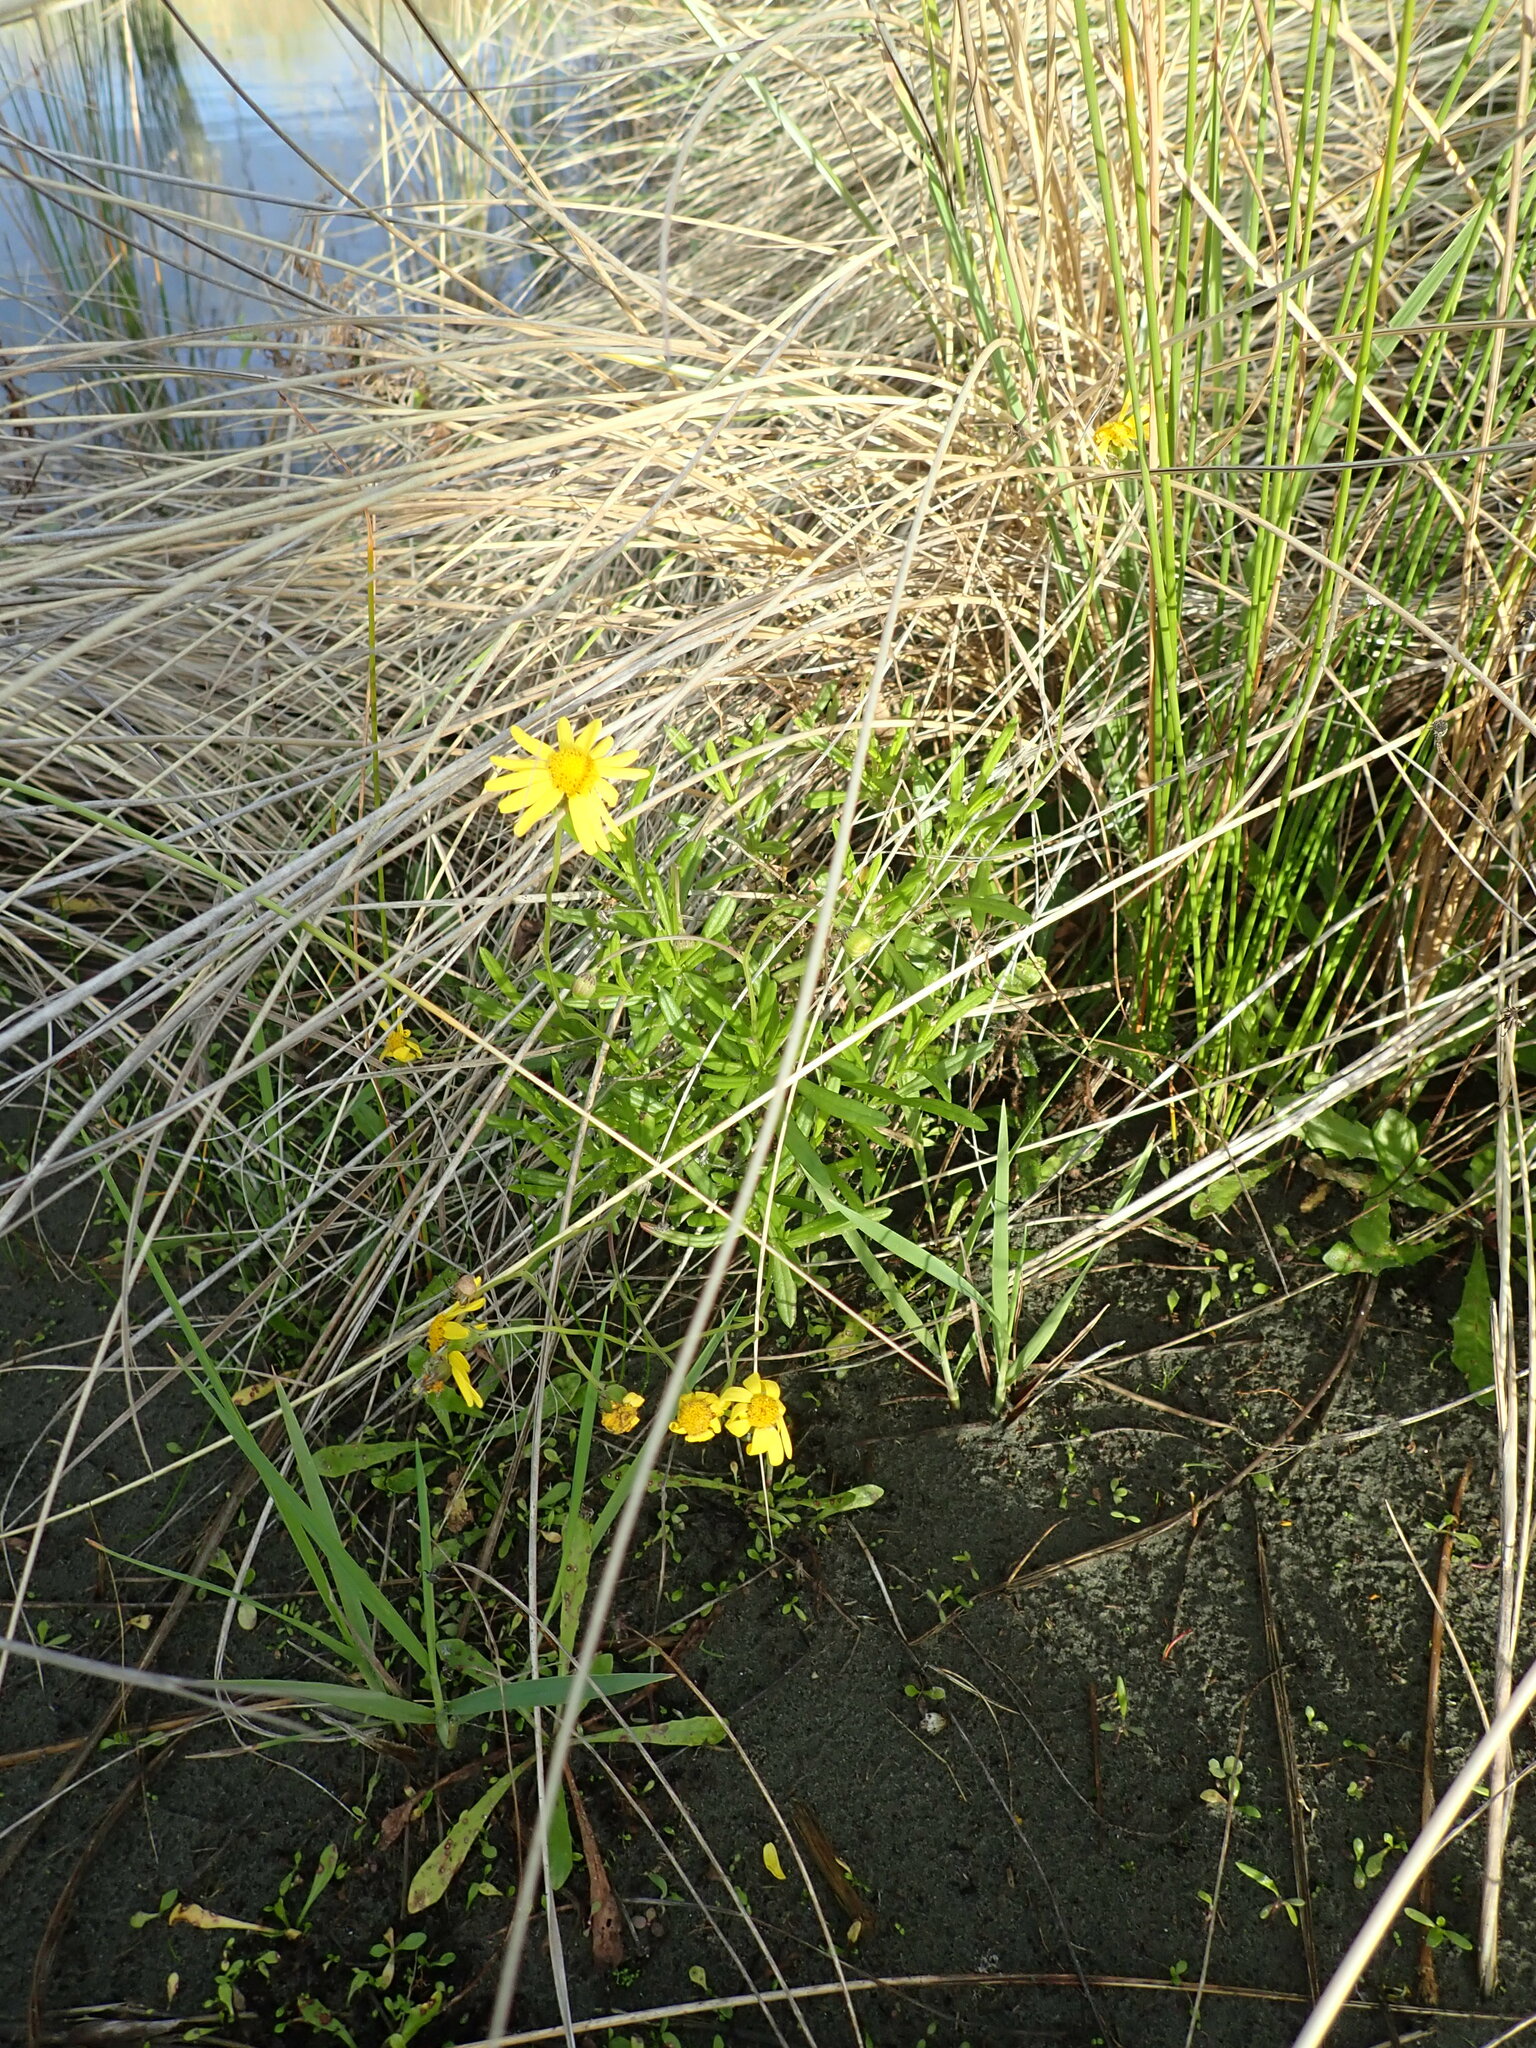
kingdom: Plantae
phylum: Tracheophyta
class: Magnoliopsida
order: Asterales
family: Asteraceae
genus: Senecio
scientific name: Senecio skirrhodon
